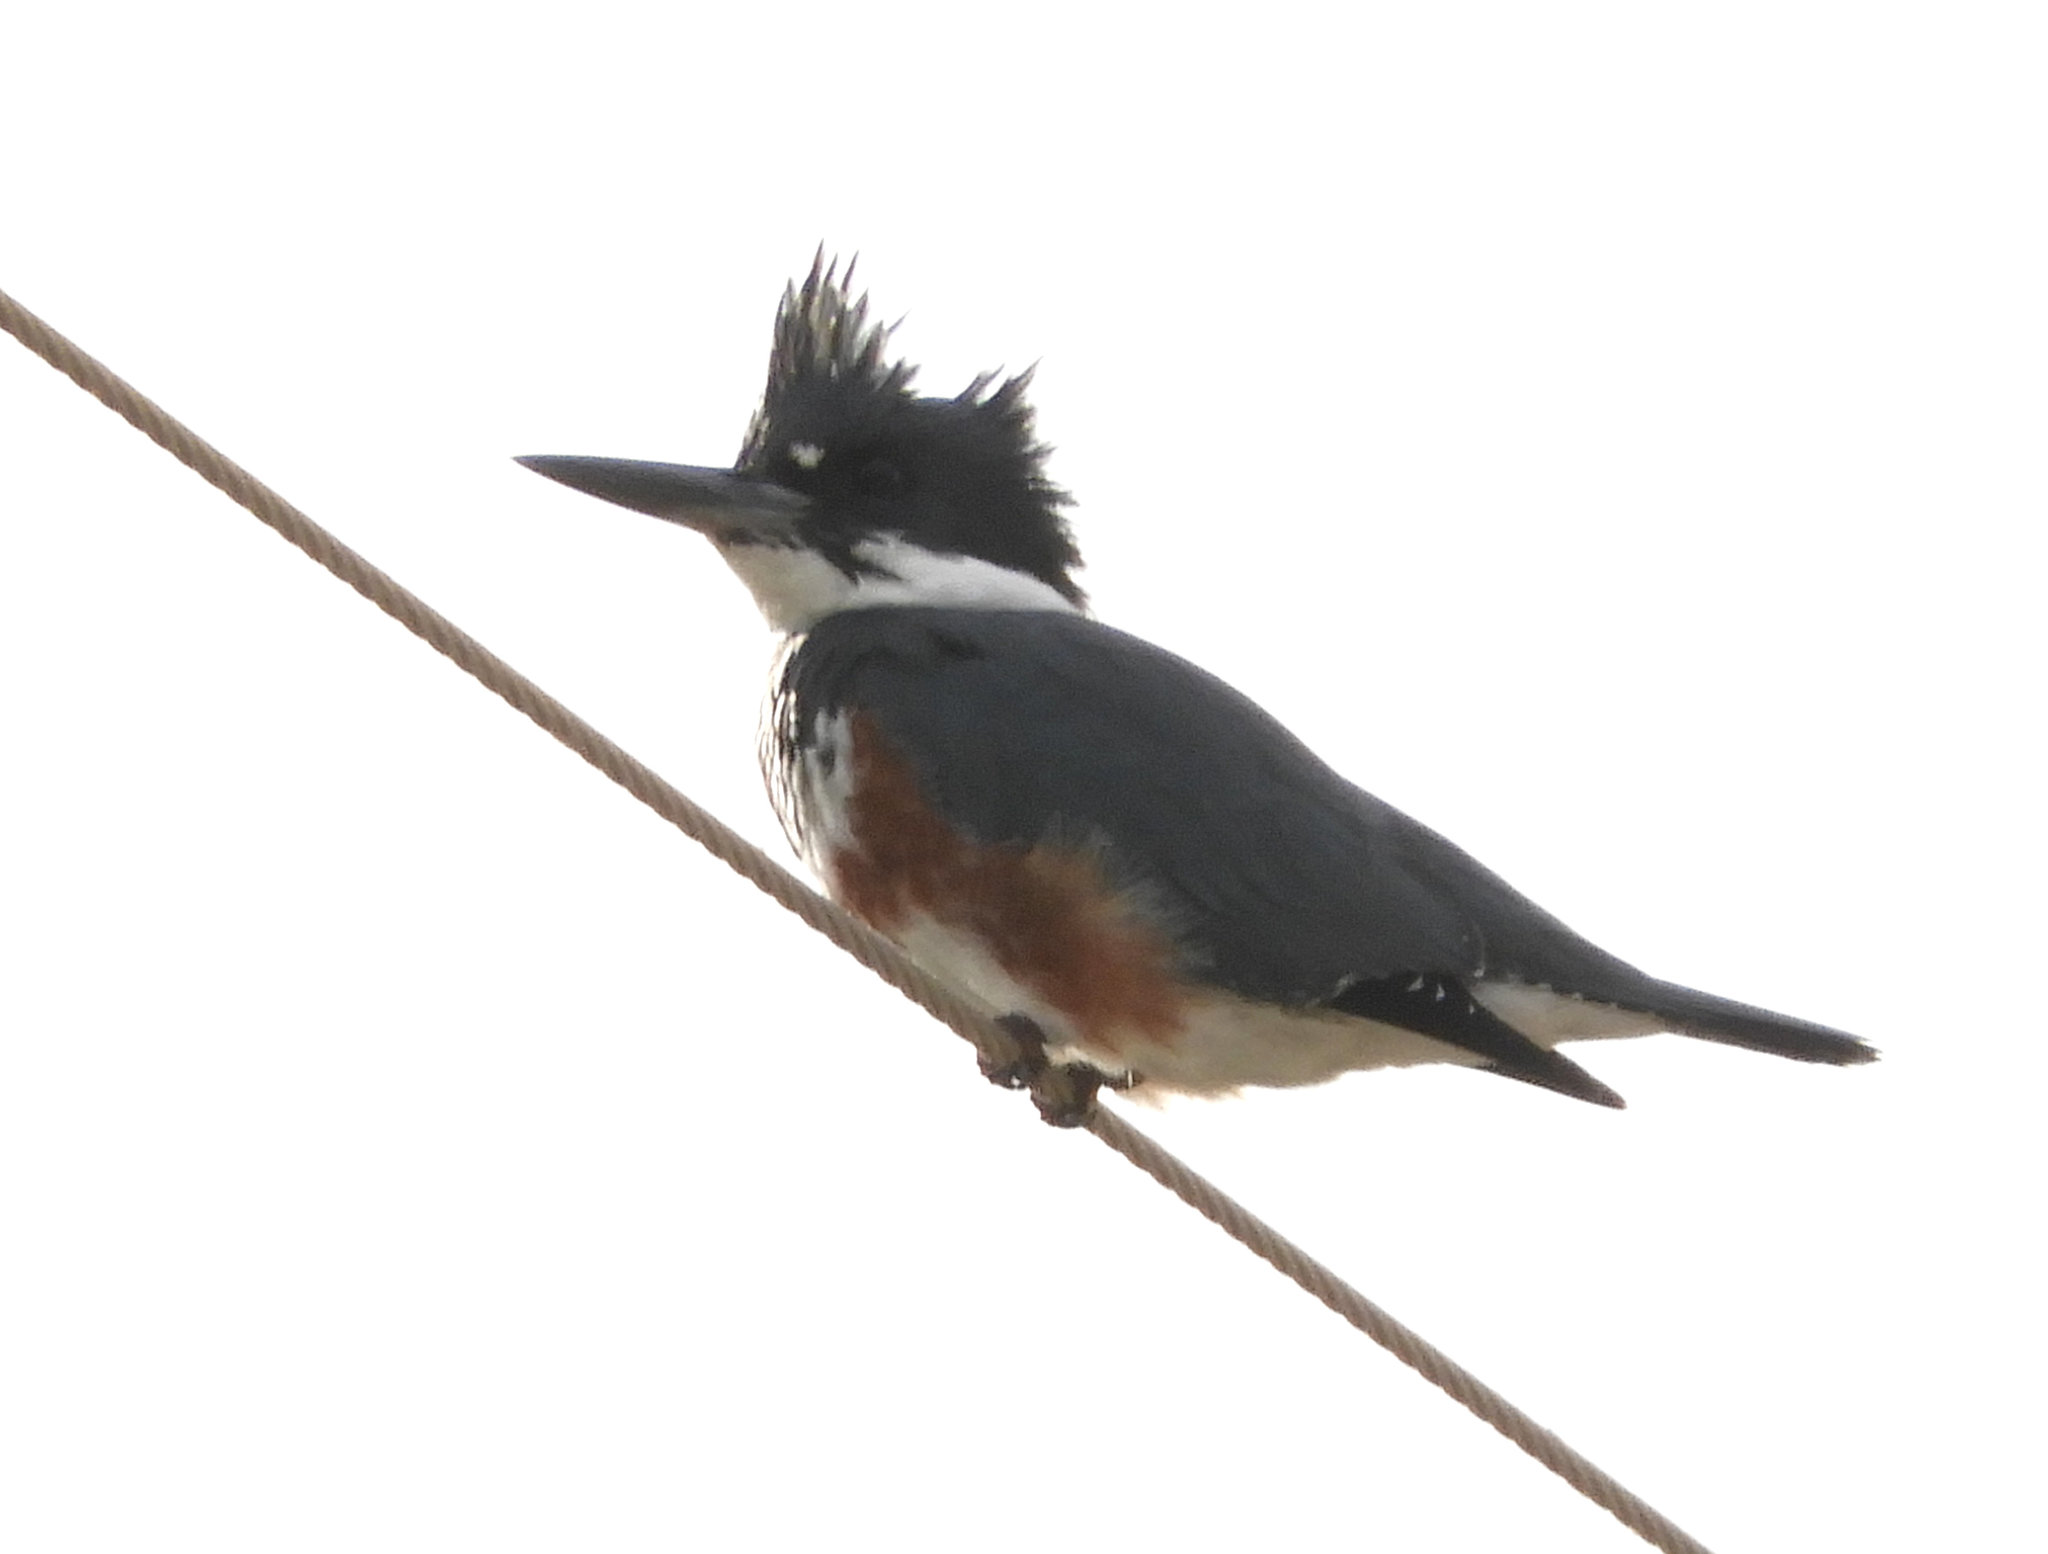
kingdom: Animalia
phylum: Chordata
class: Aves
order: Coraciiformes
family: Alcedinidae
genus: Megaceryle
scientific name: Megaceryle alcyon
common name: Belted kingfisher
